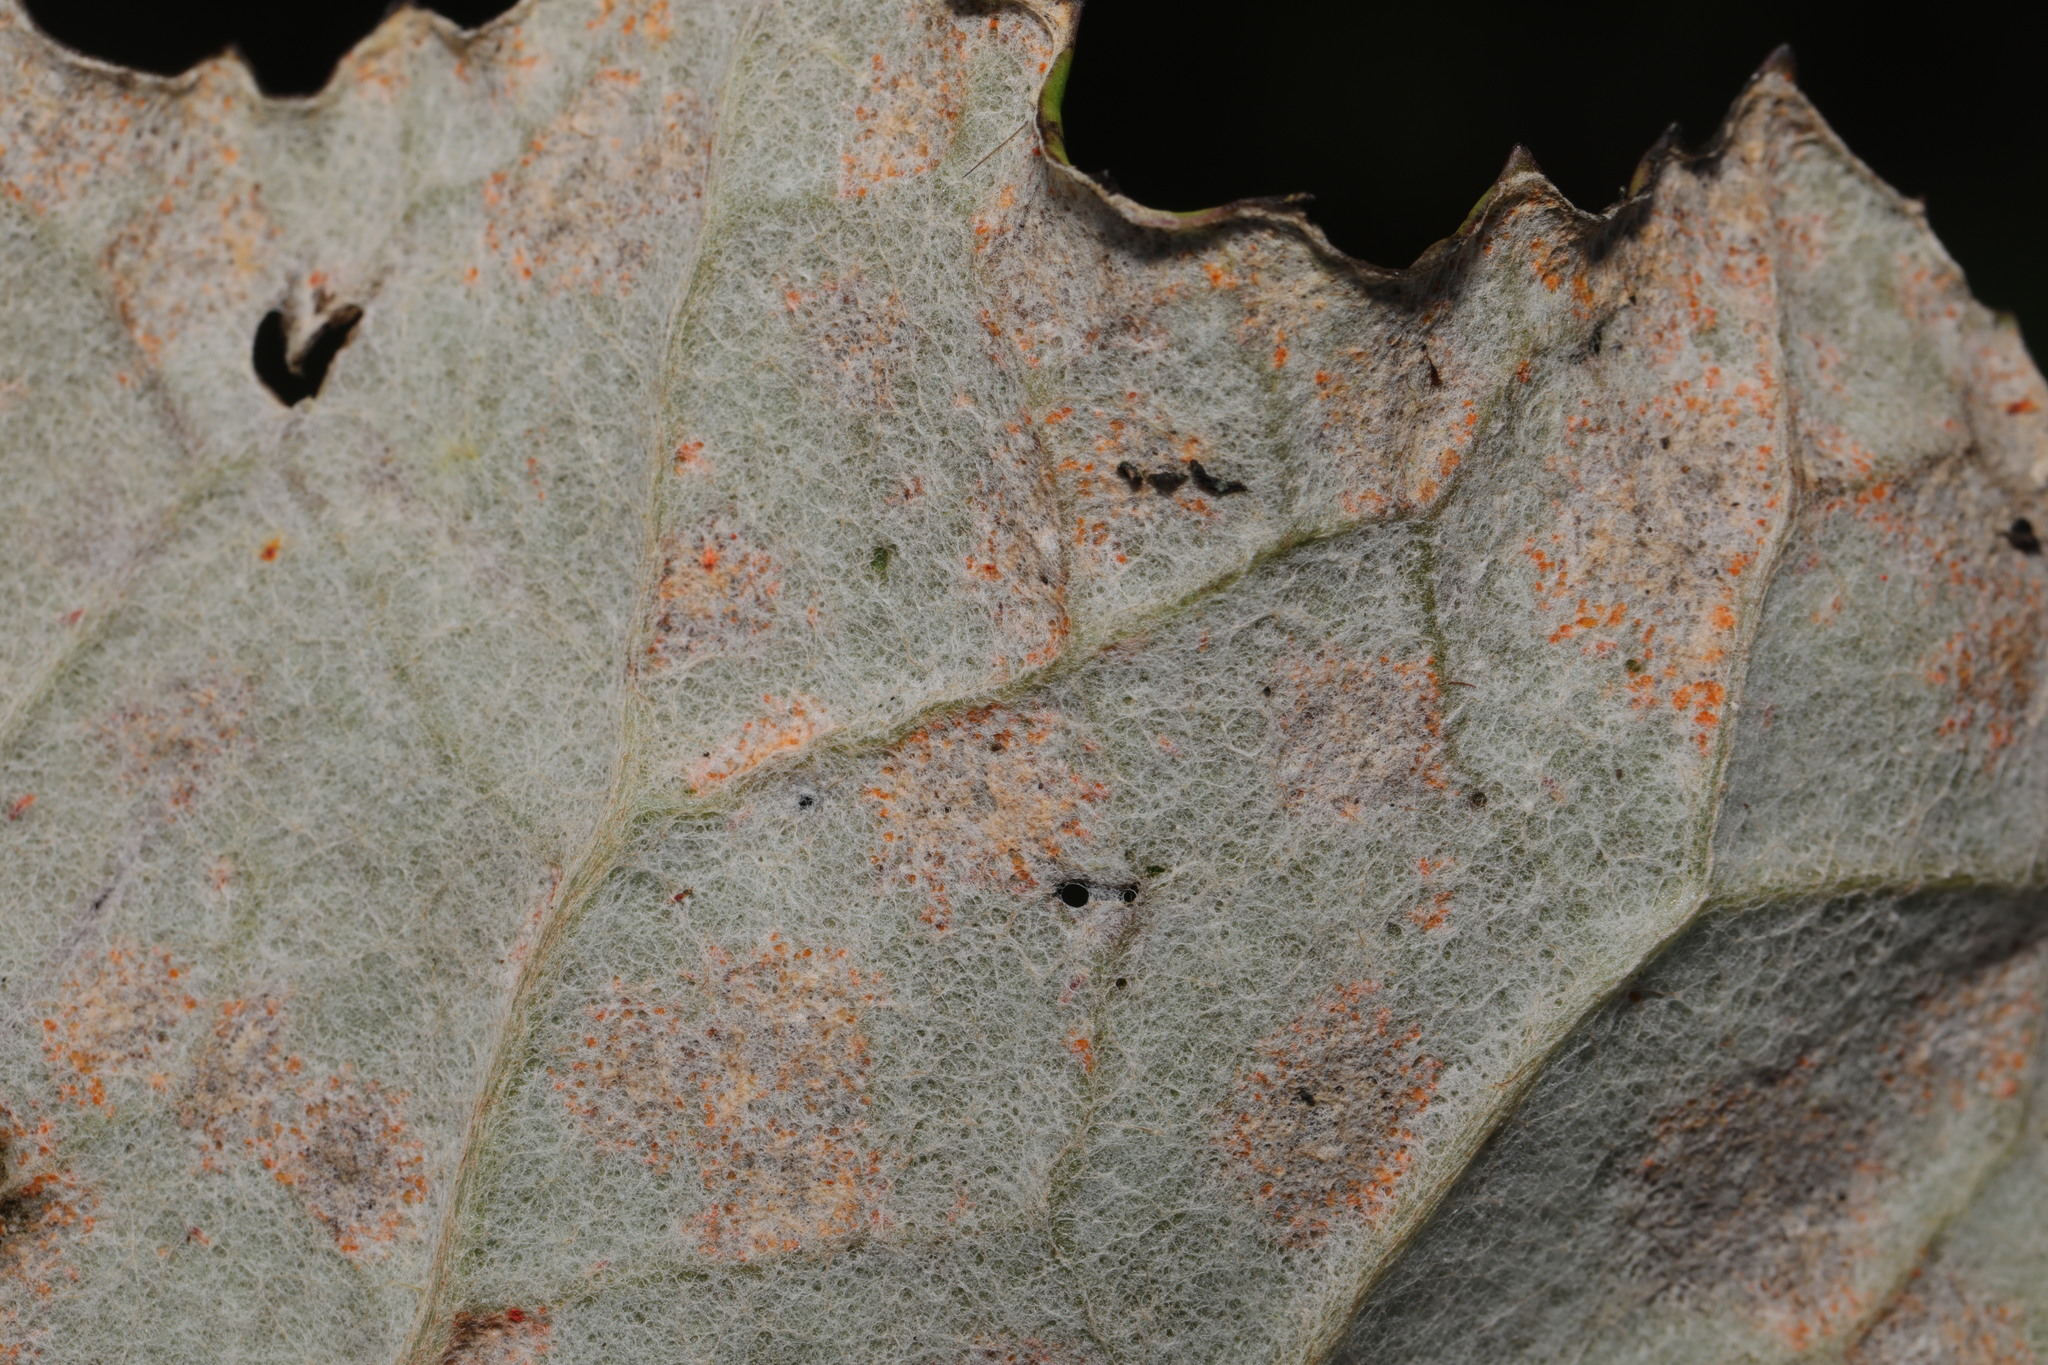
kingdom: Fungi
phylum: Basidiomycota
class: Pucciniomycetes
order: Pucciniales
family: Coleosporiaceae
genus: Coleosporium
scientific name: Coleosporium tussilaginis
